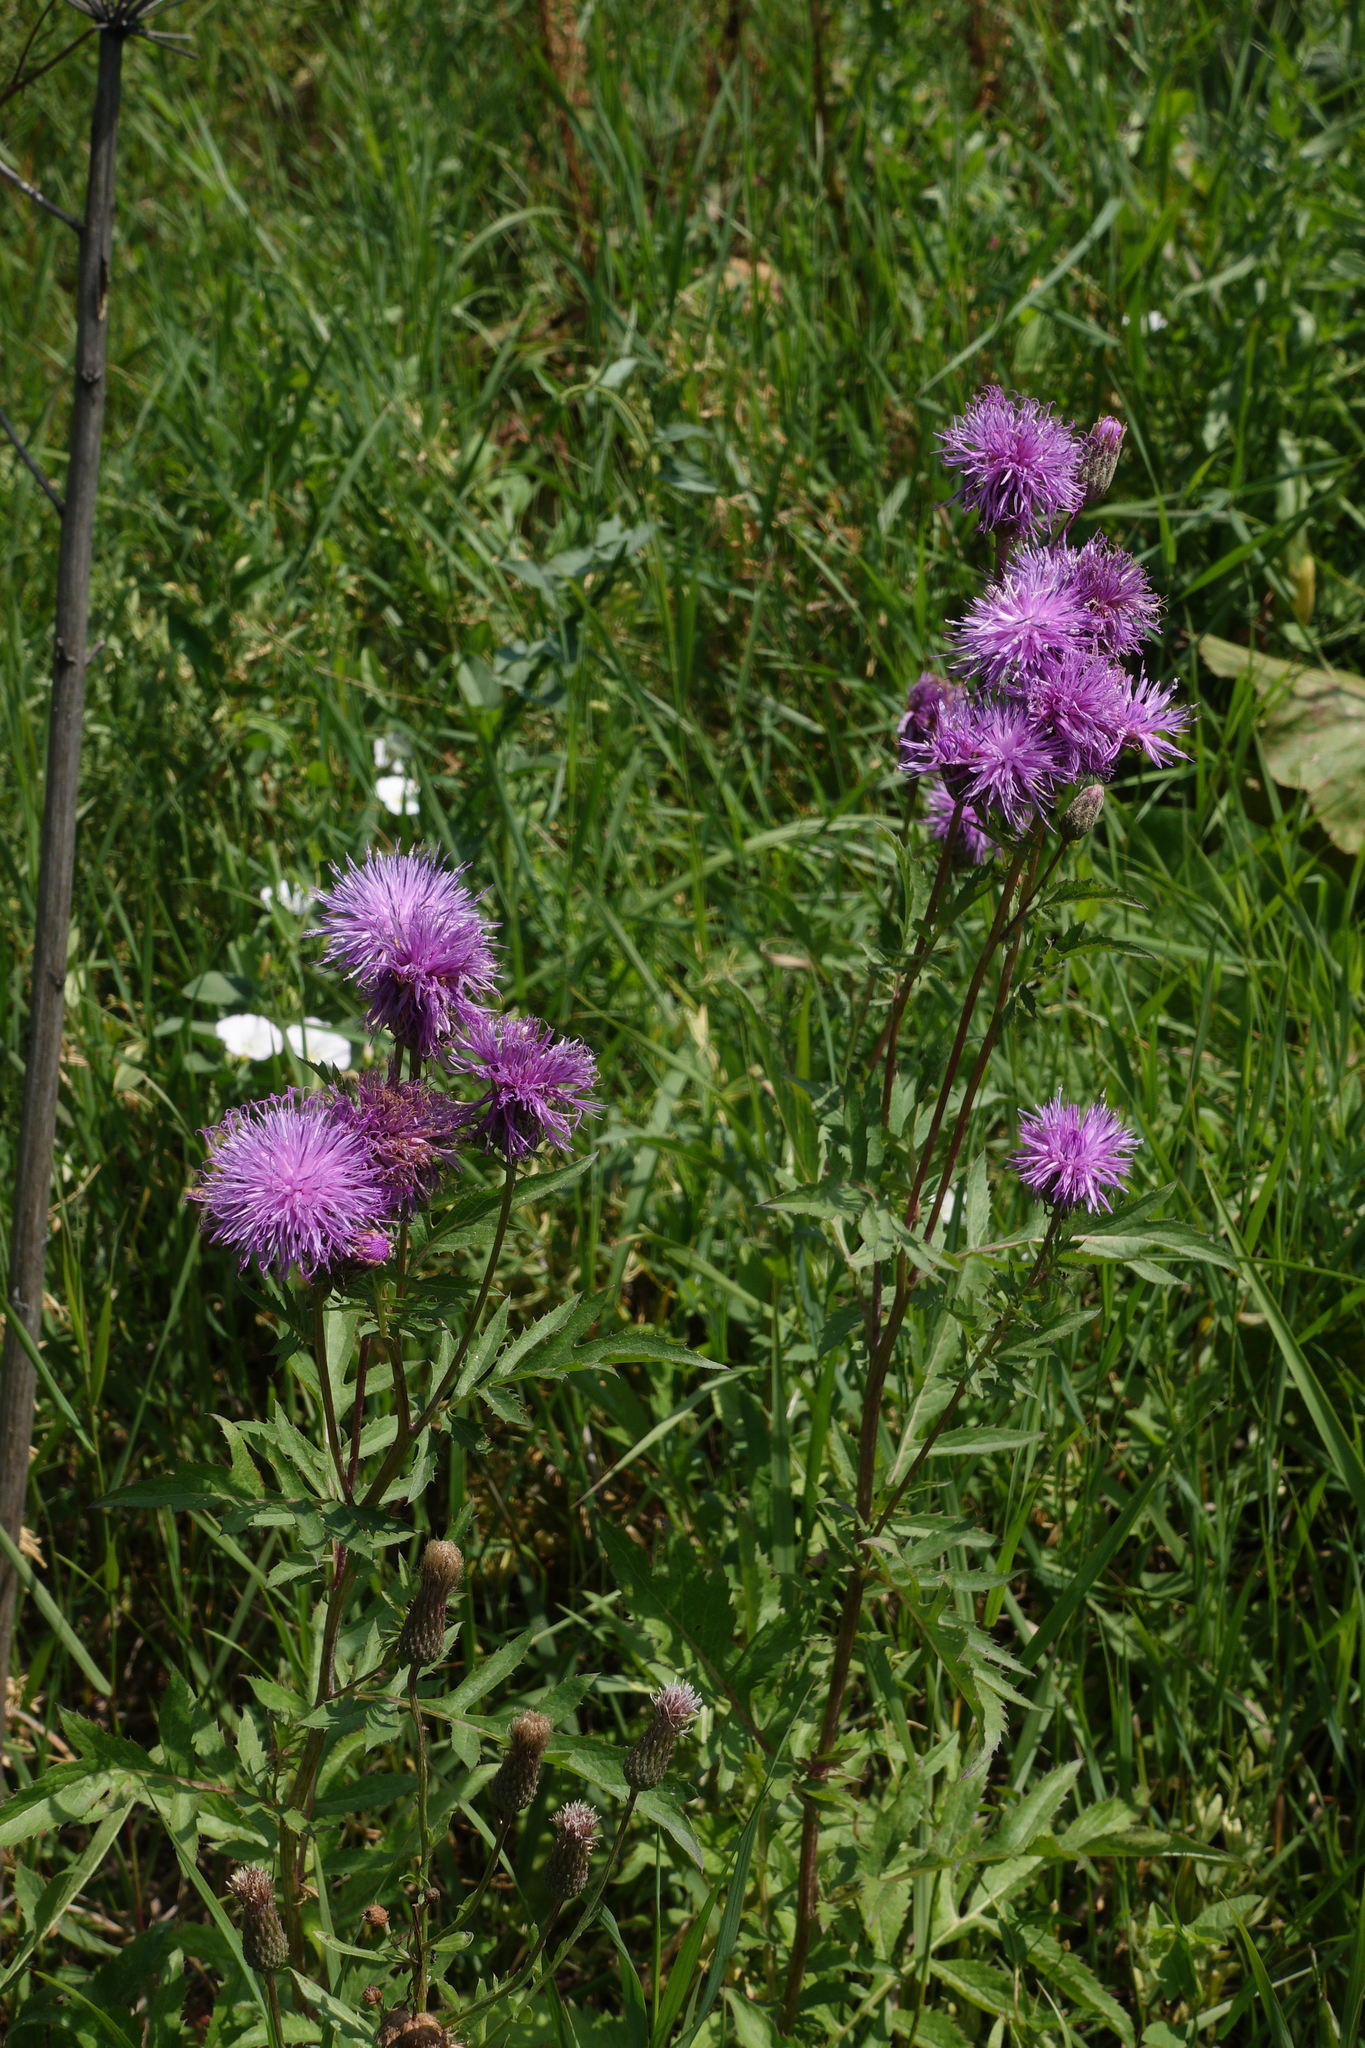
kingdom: Plantae
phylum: Tracheophyta
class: Magnoliopsida
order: Asterales
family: Asteraceae
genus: Serratula
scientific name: Serratula coronata
